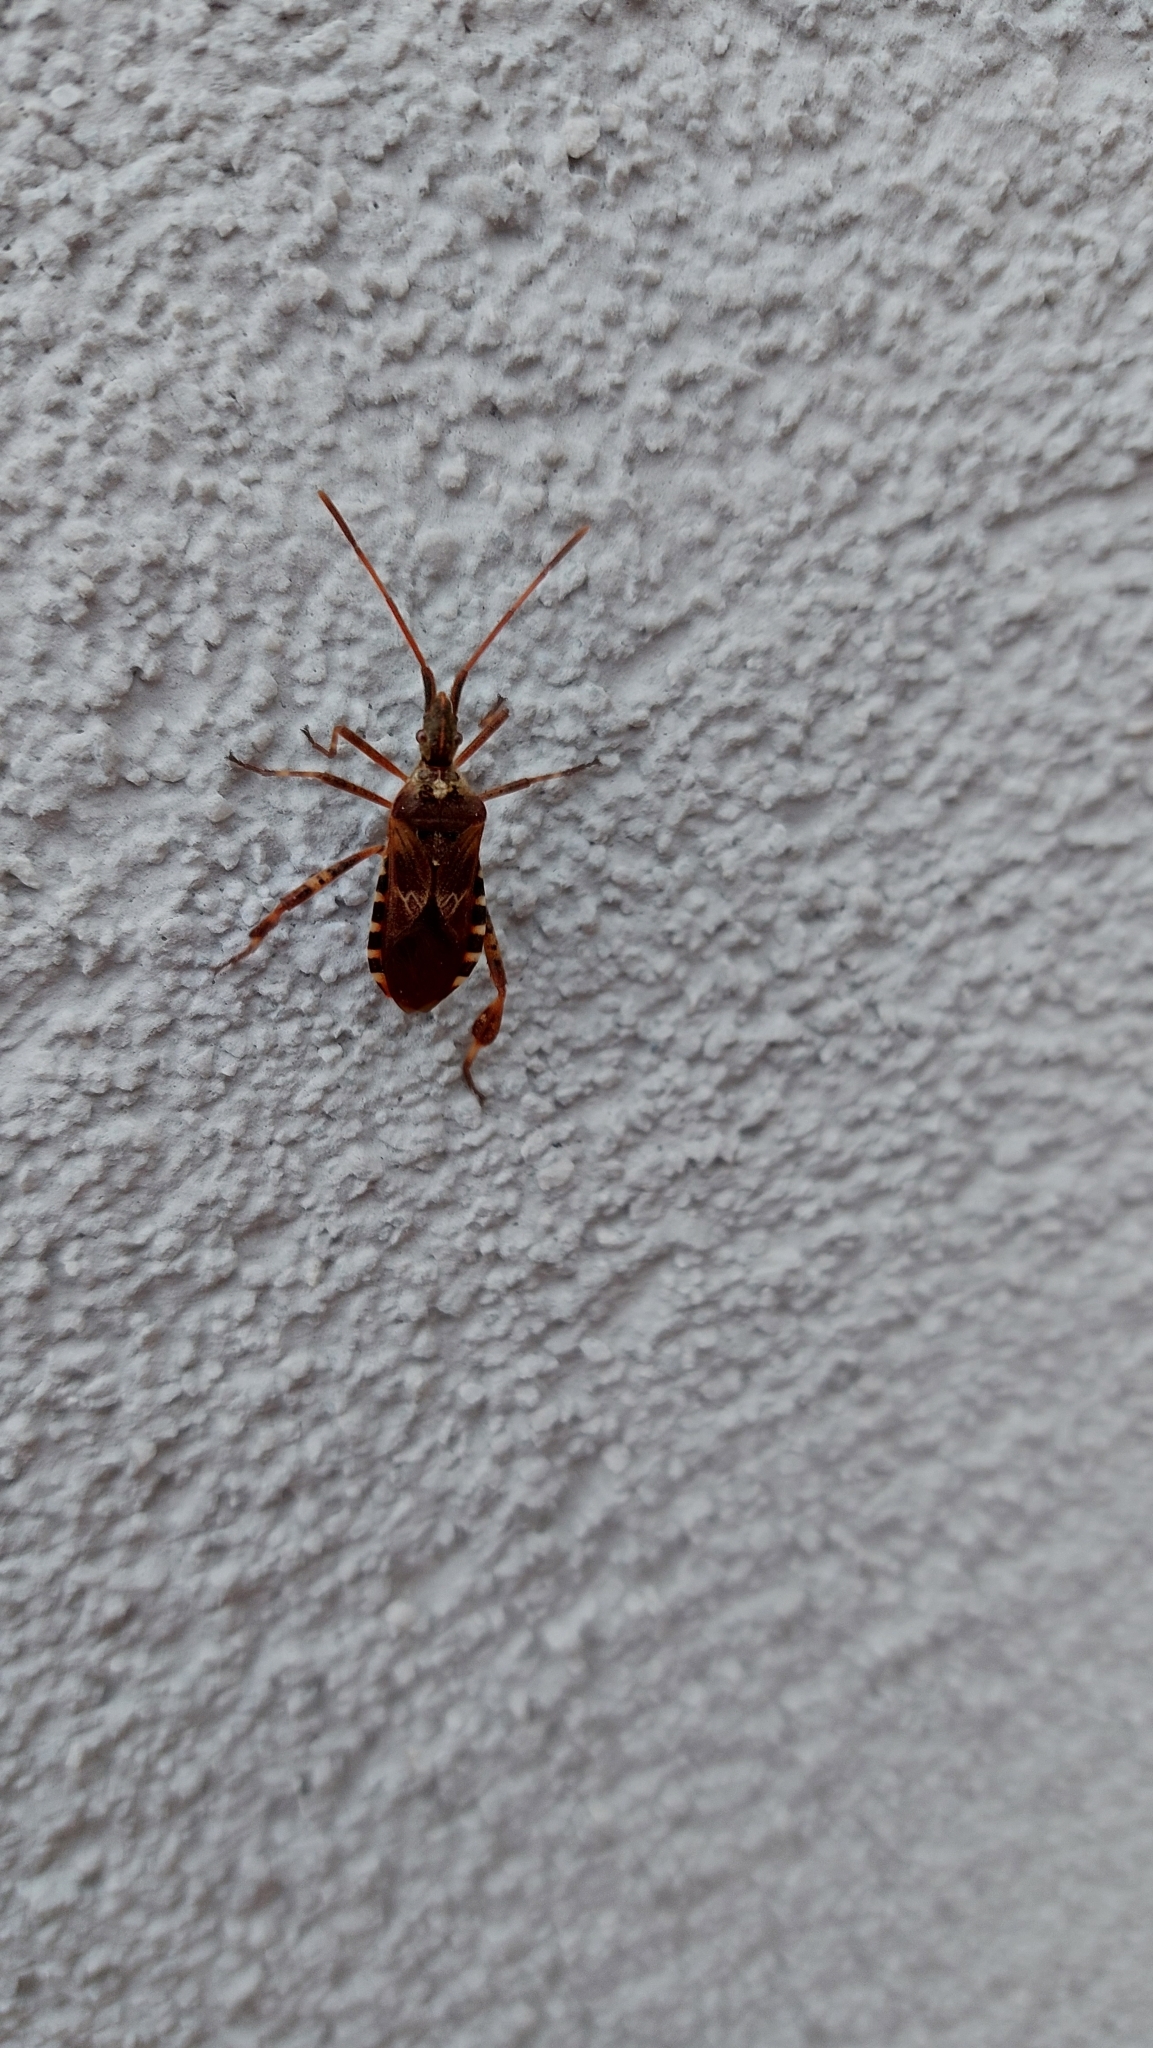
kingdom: Animalia
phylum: Arthropoda
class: Insecta
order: Hemiptera
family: Coreidae
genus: Leptoglossus
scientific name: Leptoglossus occidentalis
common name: Western conifer-seed bug
